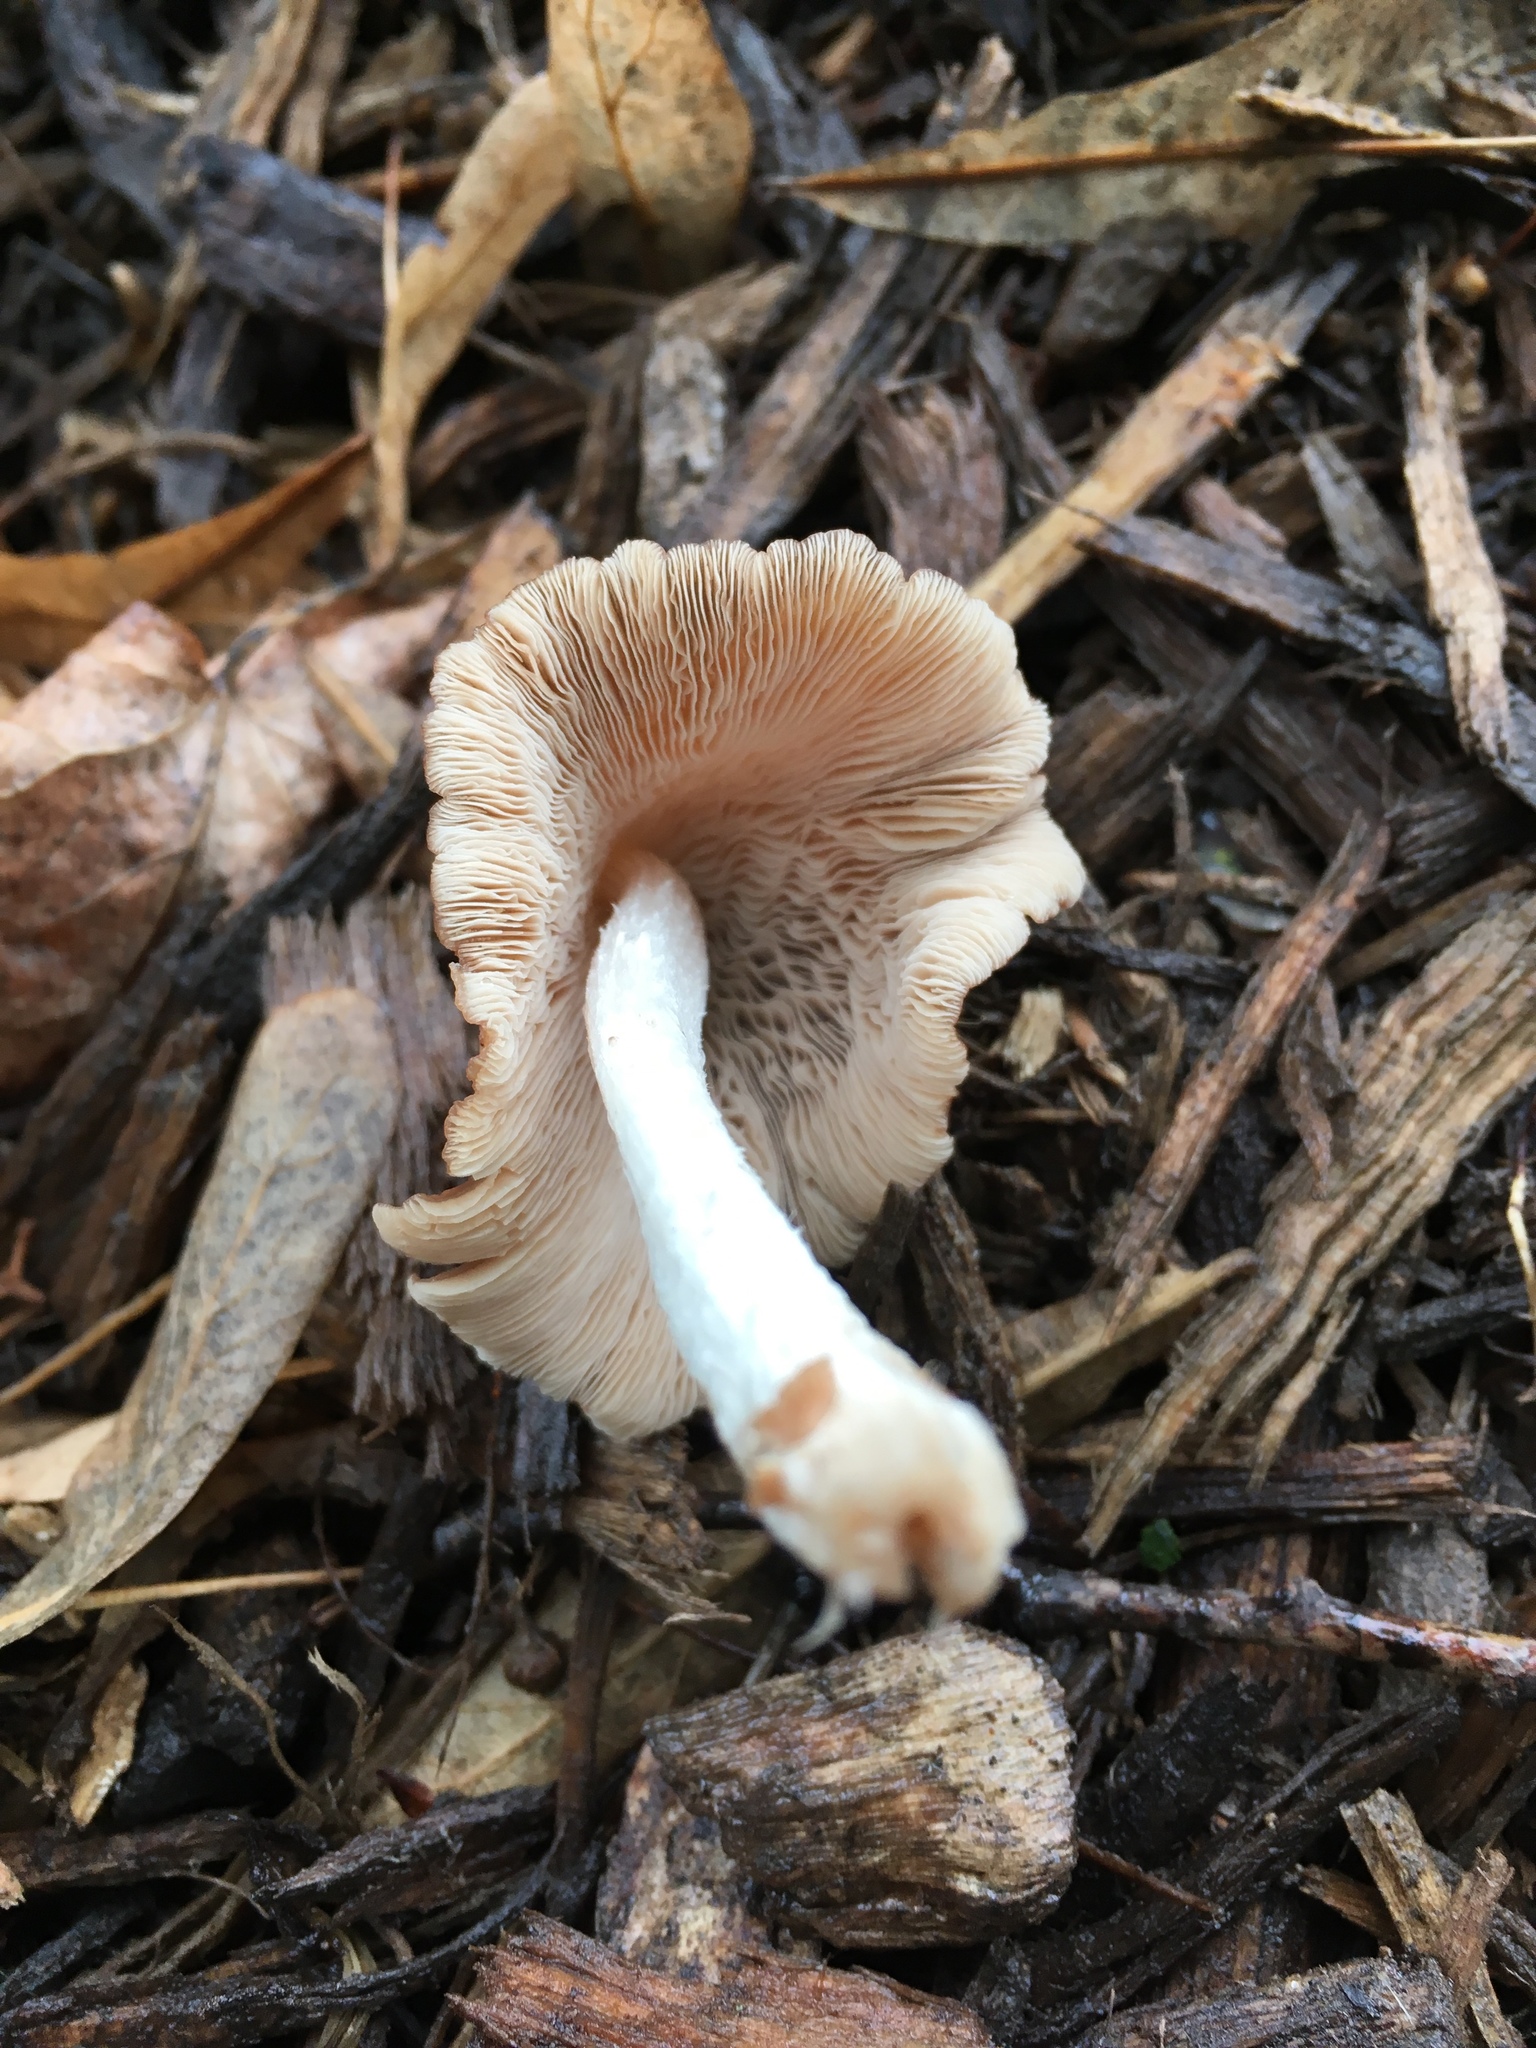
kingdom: Fungi
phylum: Basidiomycota
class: Agaricomycetes
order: Agaricales
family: Omphalotaceae
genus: Collybiopsis
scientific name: Collybiopsis luxurians
